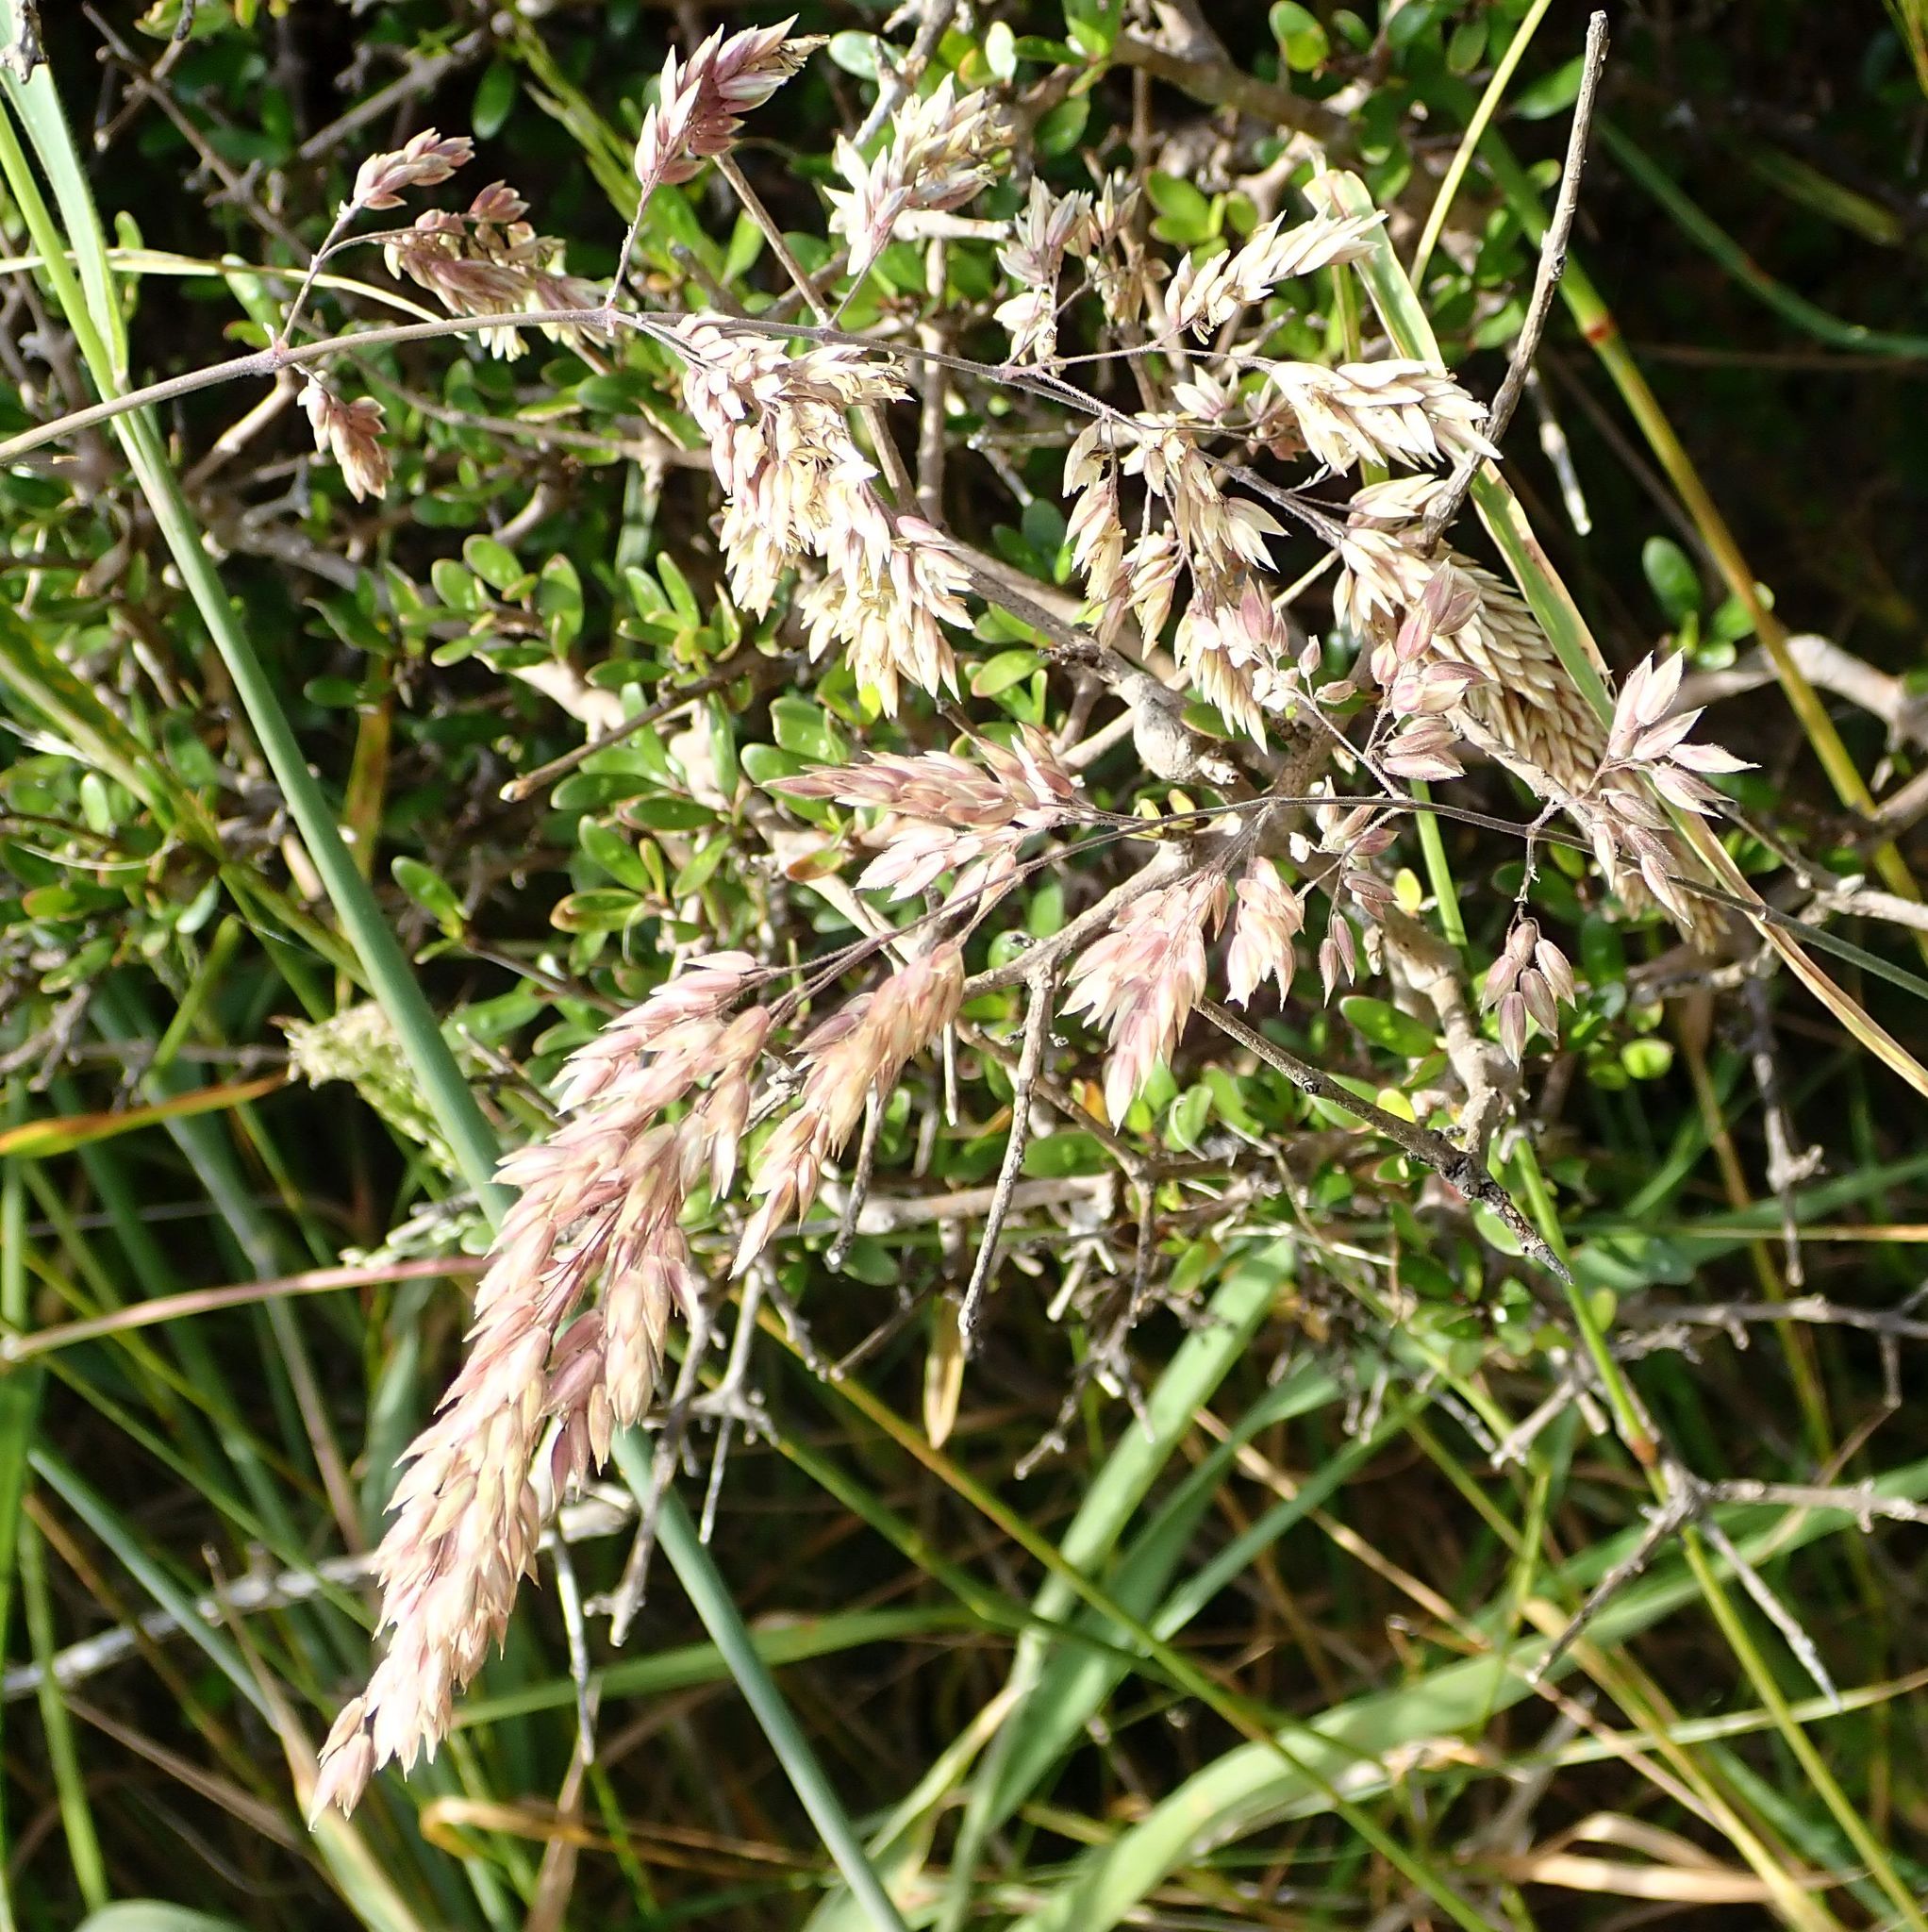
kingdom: Plantae
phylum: Tracheophyta
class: Liliopsida
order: Poales
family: Poaceae
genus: Holcus
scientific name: Holcus lanatus
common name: Yorkshire-fog
